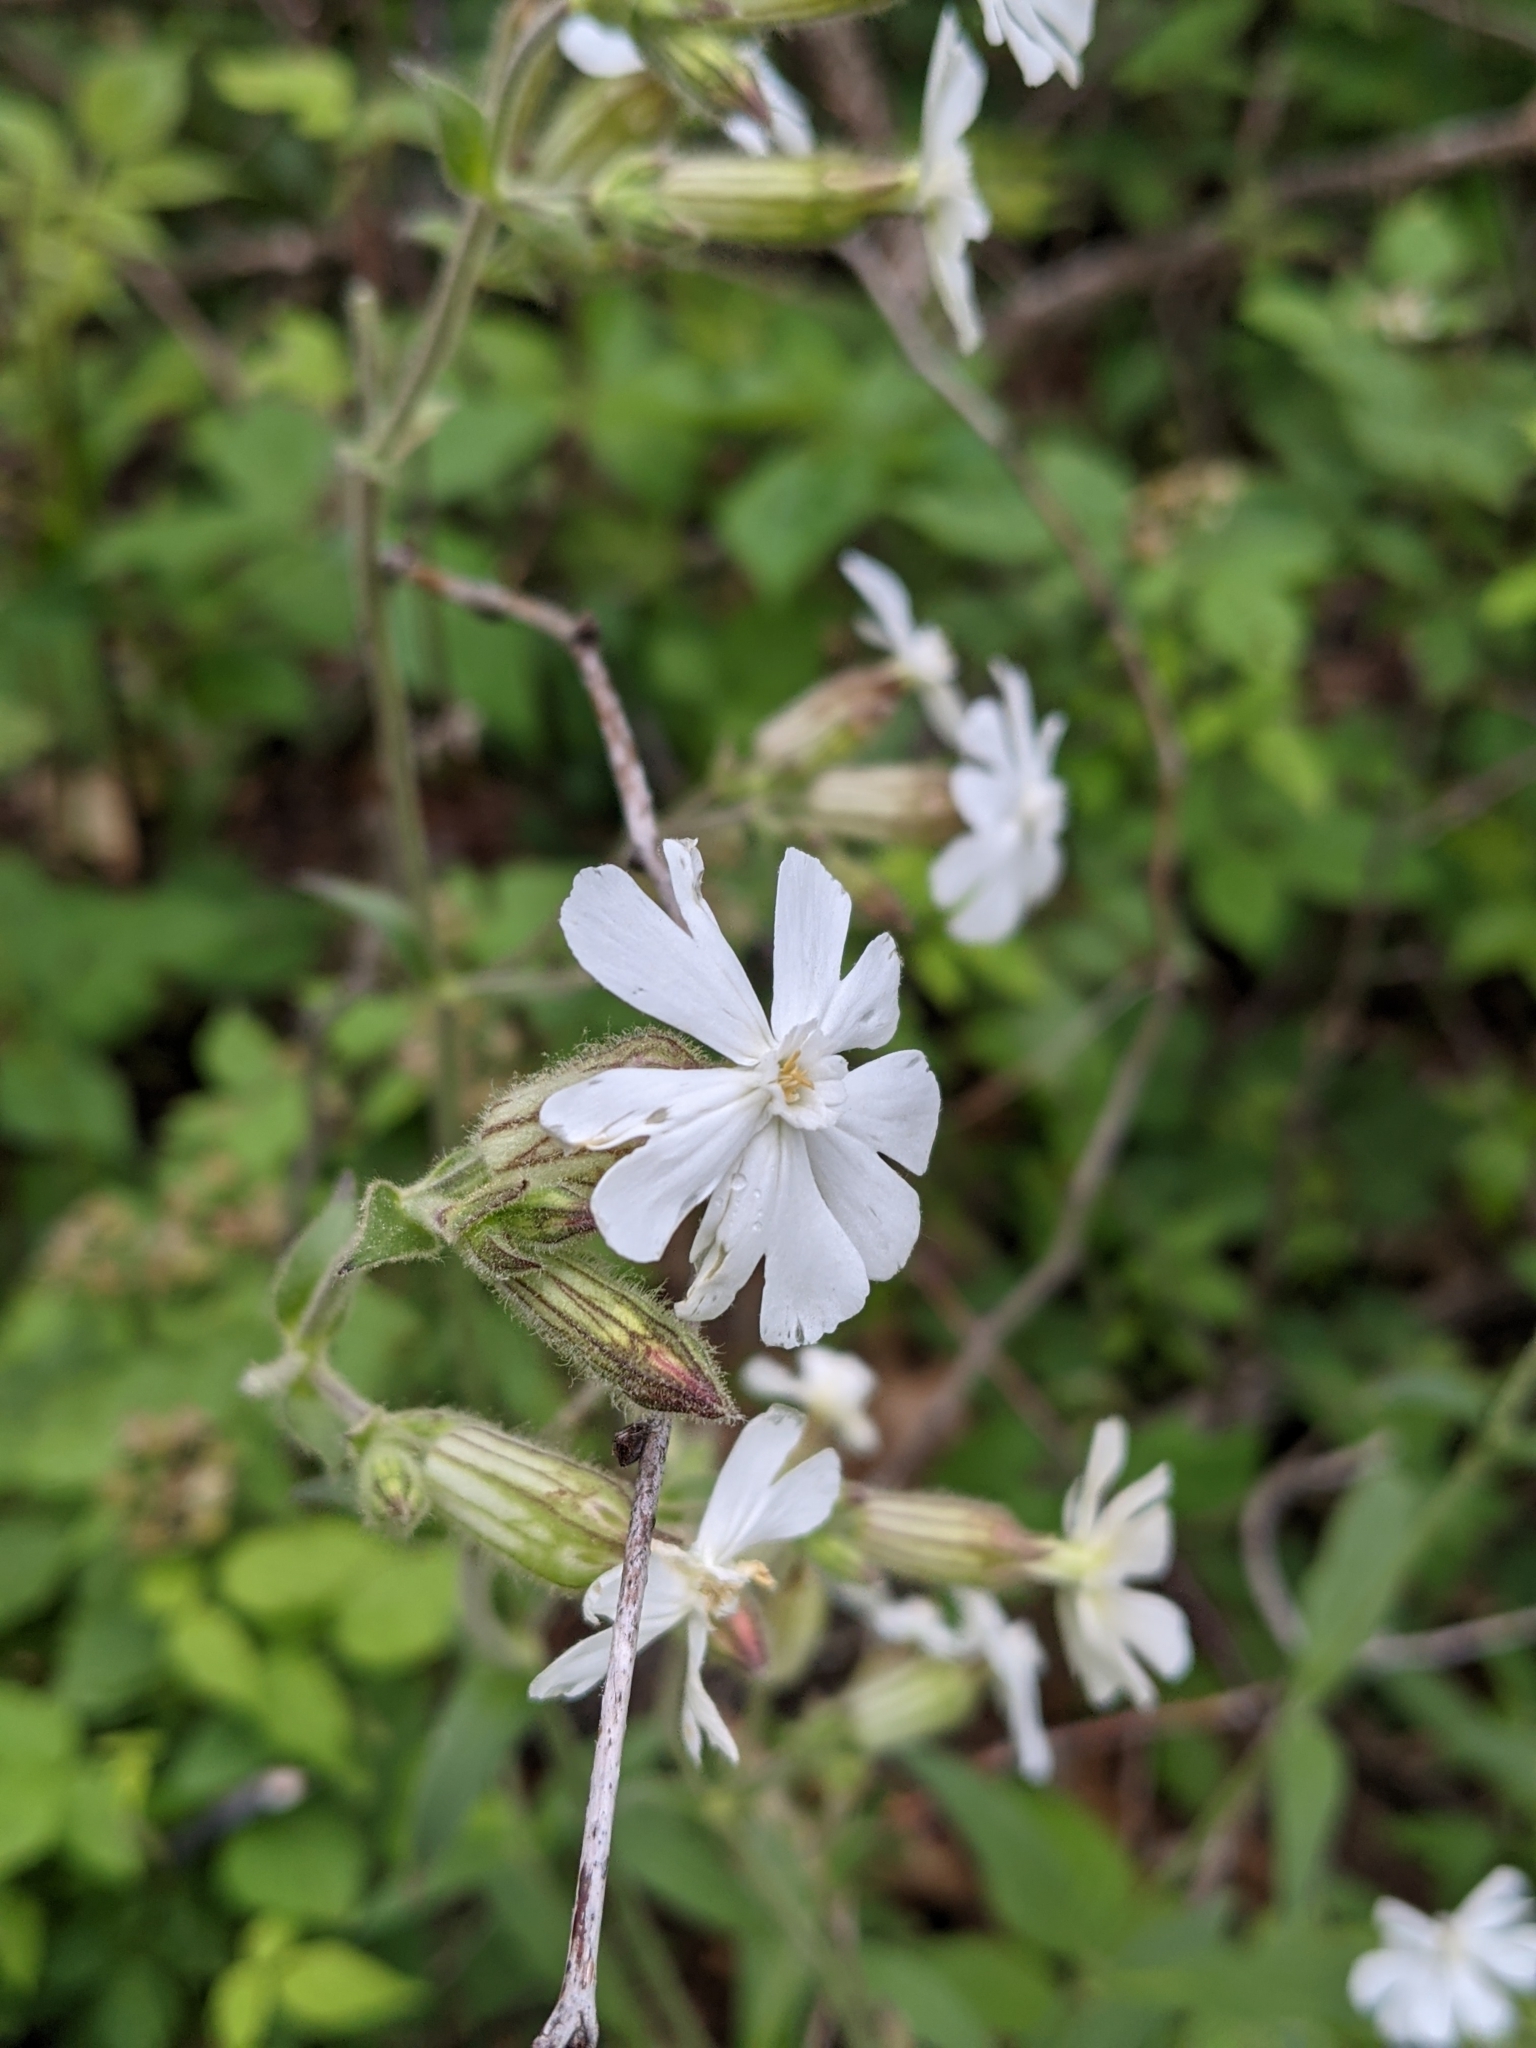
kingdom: Plantae
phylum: Tracheophyta
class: Magnoliopsida
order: Caryophyllales
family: Caryophyllaceae
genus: Silene
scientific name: Silene latifolia
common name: White campion
